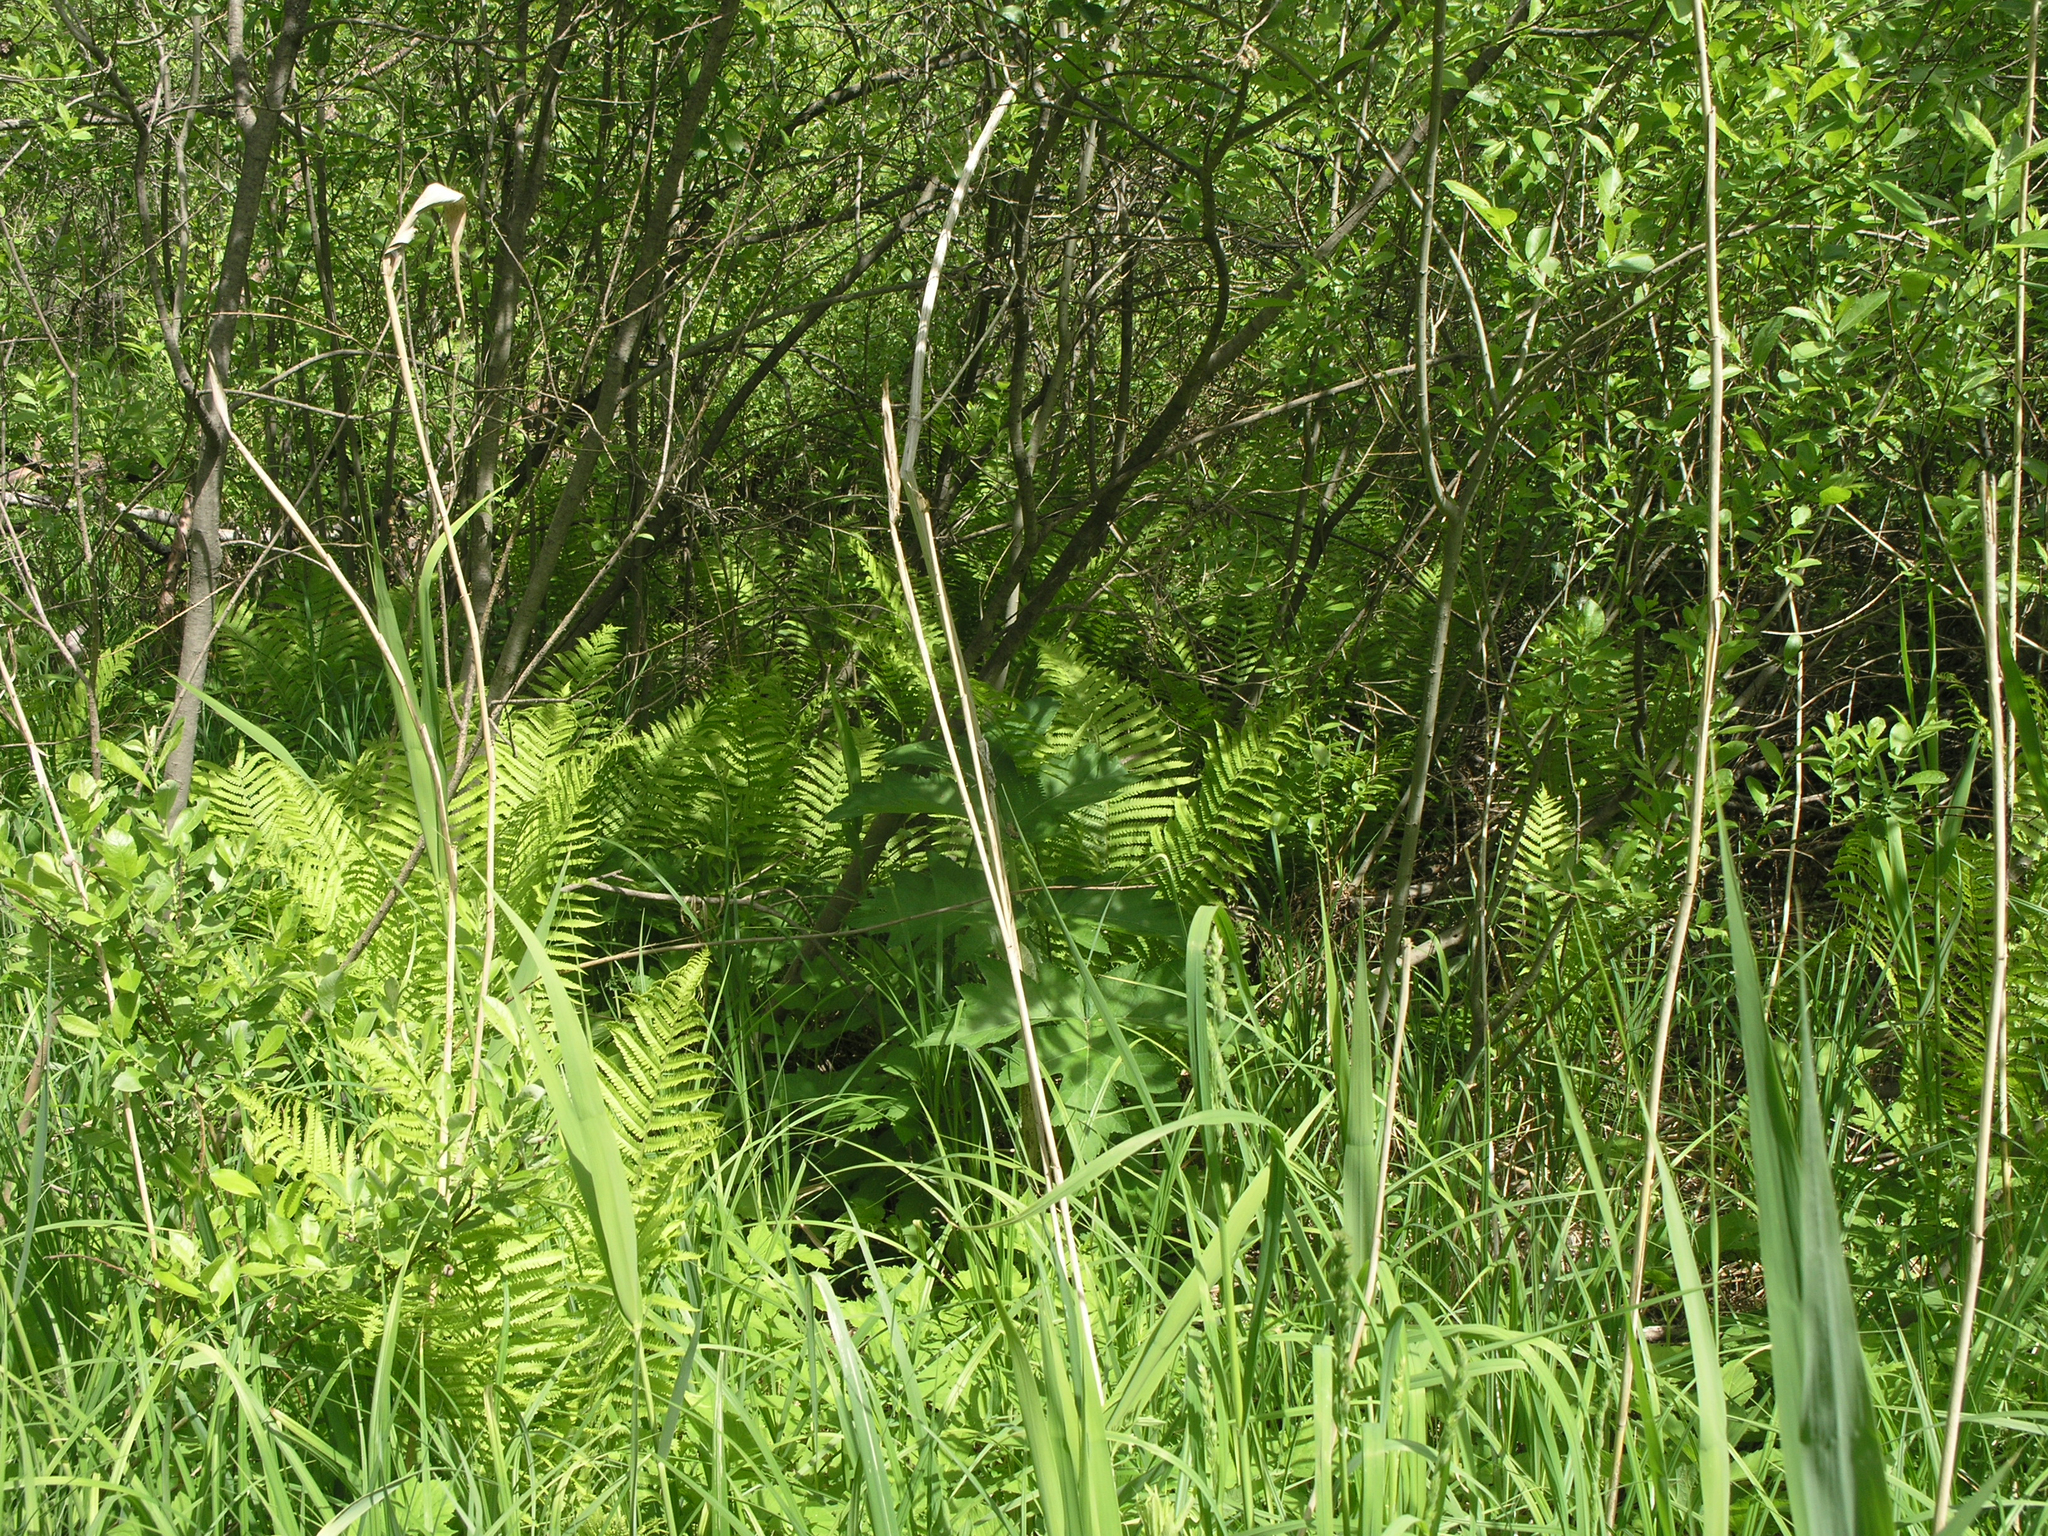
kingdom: Plantae
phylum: Tracheophyta
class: Polypodiopsida
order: Polypodiales
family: Thelypteridaceae
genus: Thelypteris
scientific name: Thelypteris palustris
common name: Marsh fern
